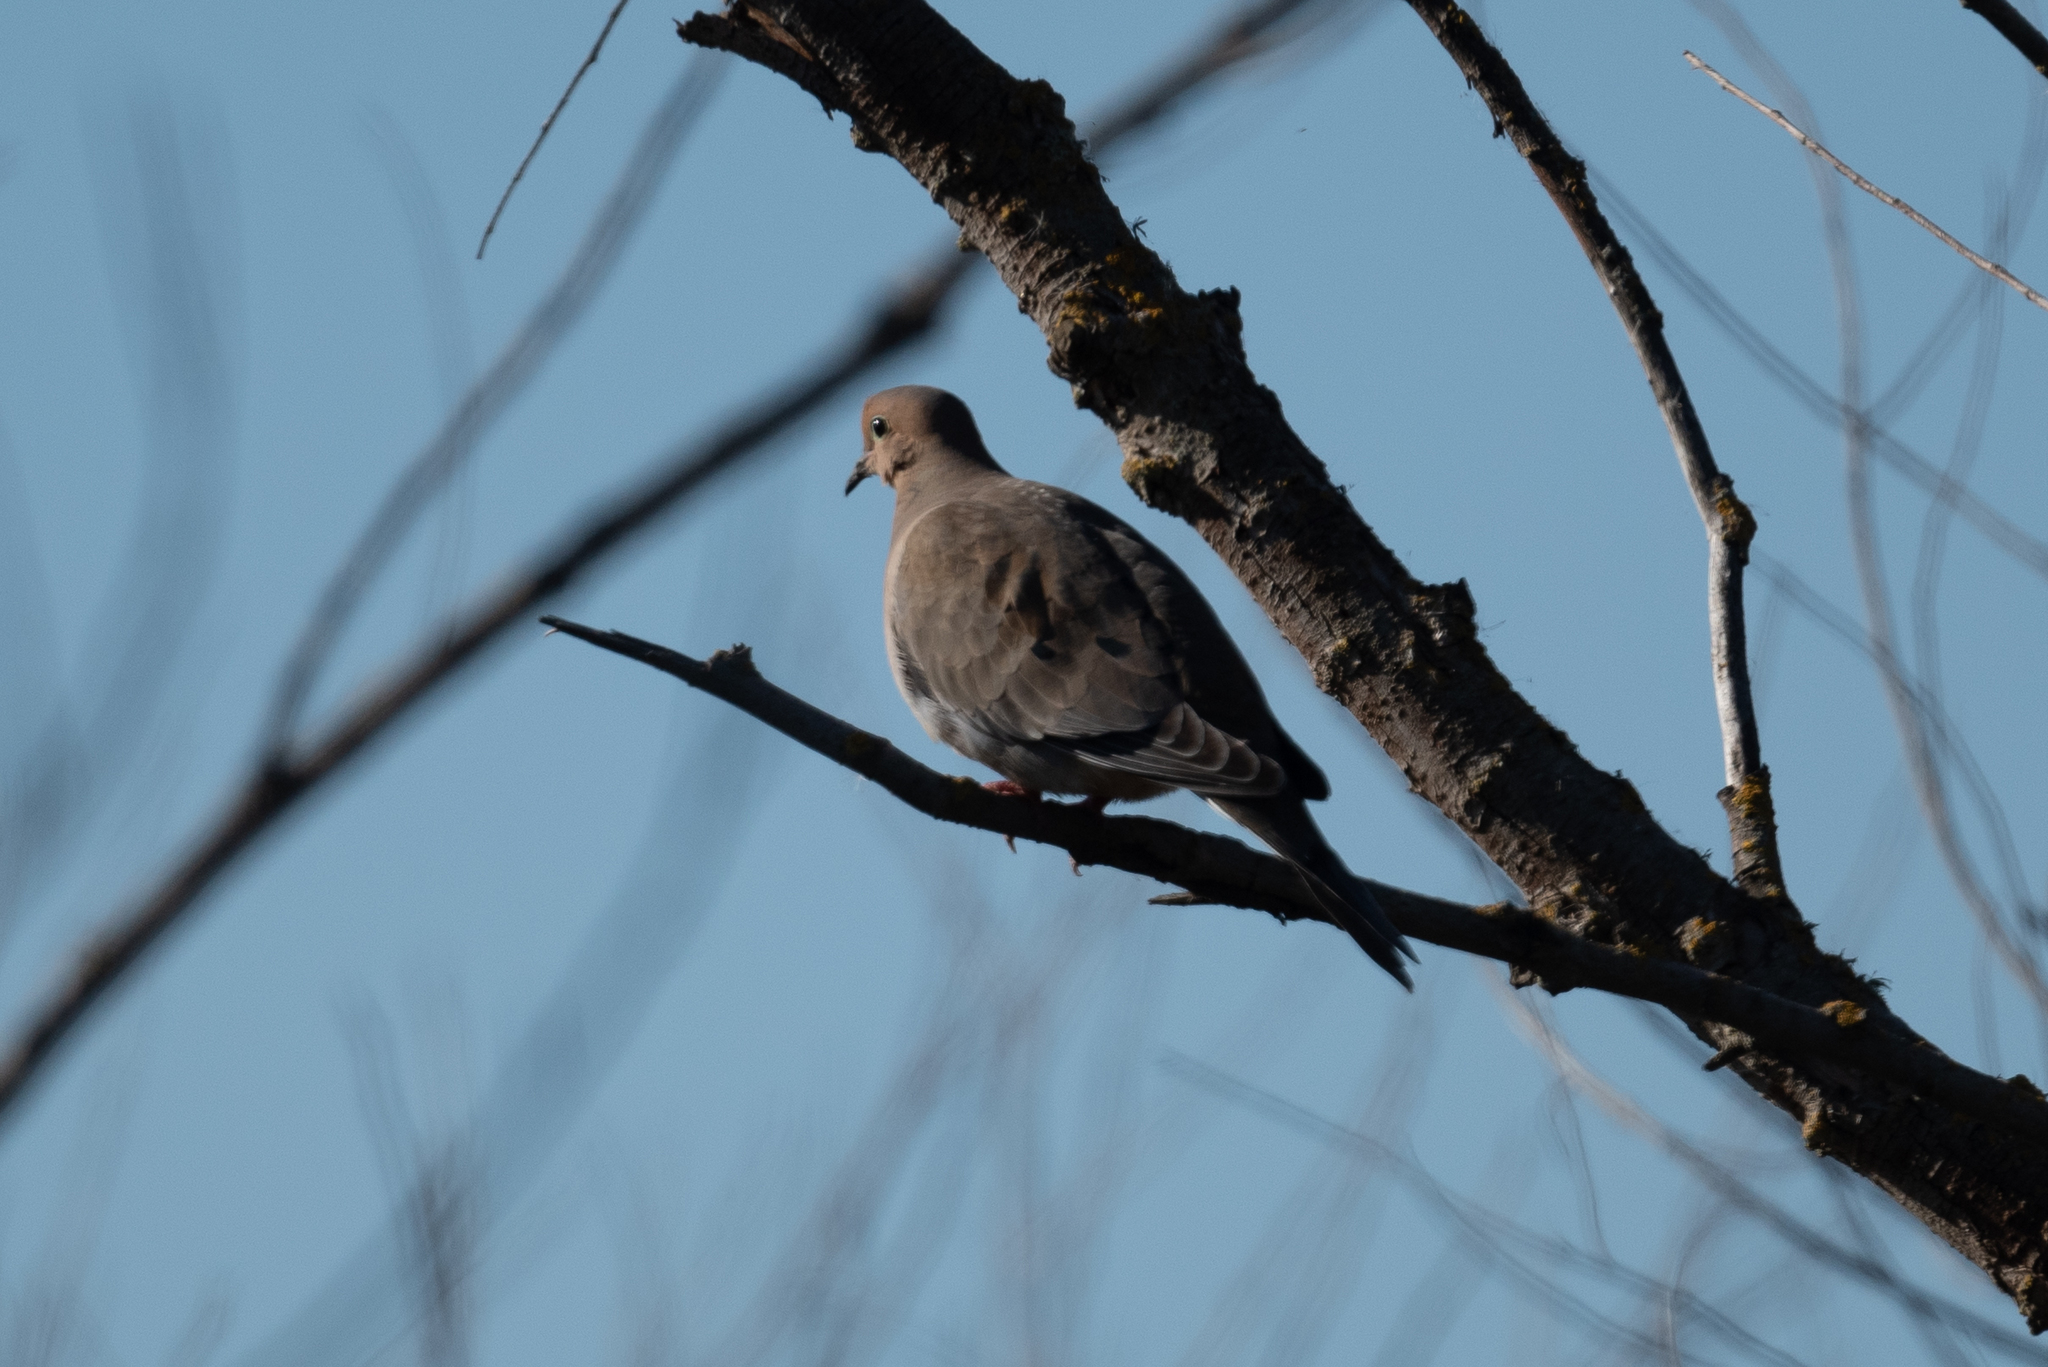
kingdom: Animalia
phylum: Chordata
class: Aves
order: Columbiformes
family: Columbidae
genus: Zenaida
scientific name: Zenaida macroura
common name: Mourning dove
